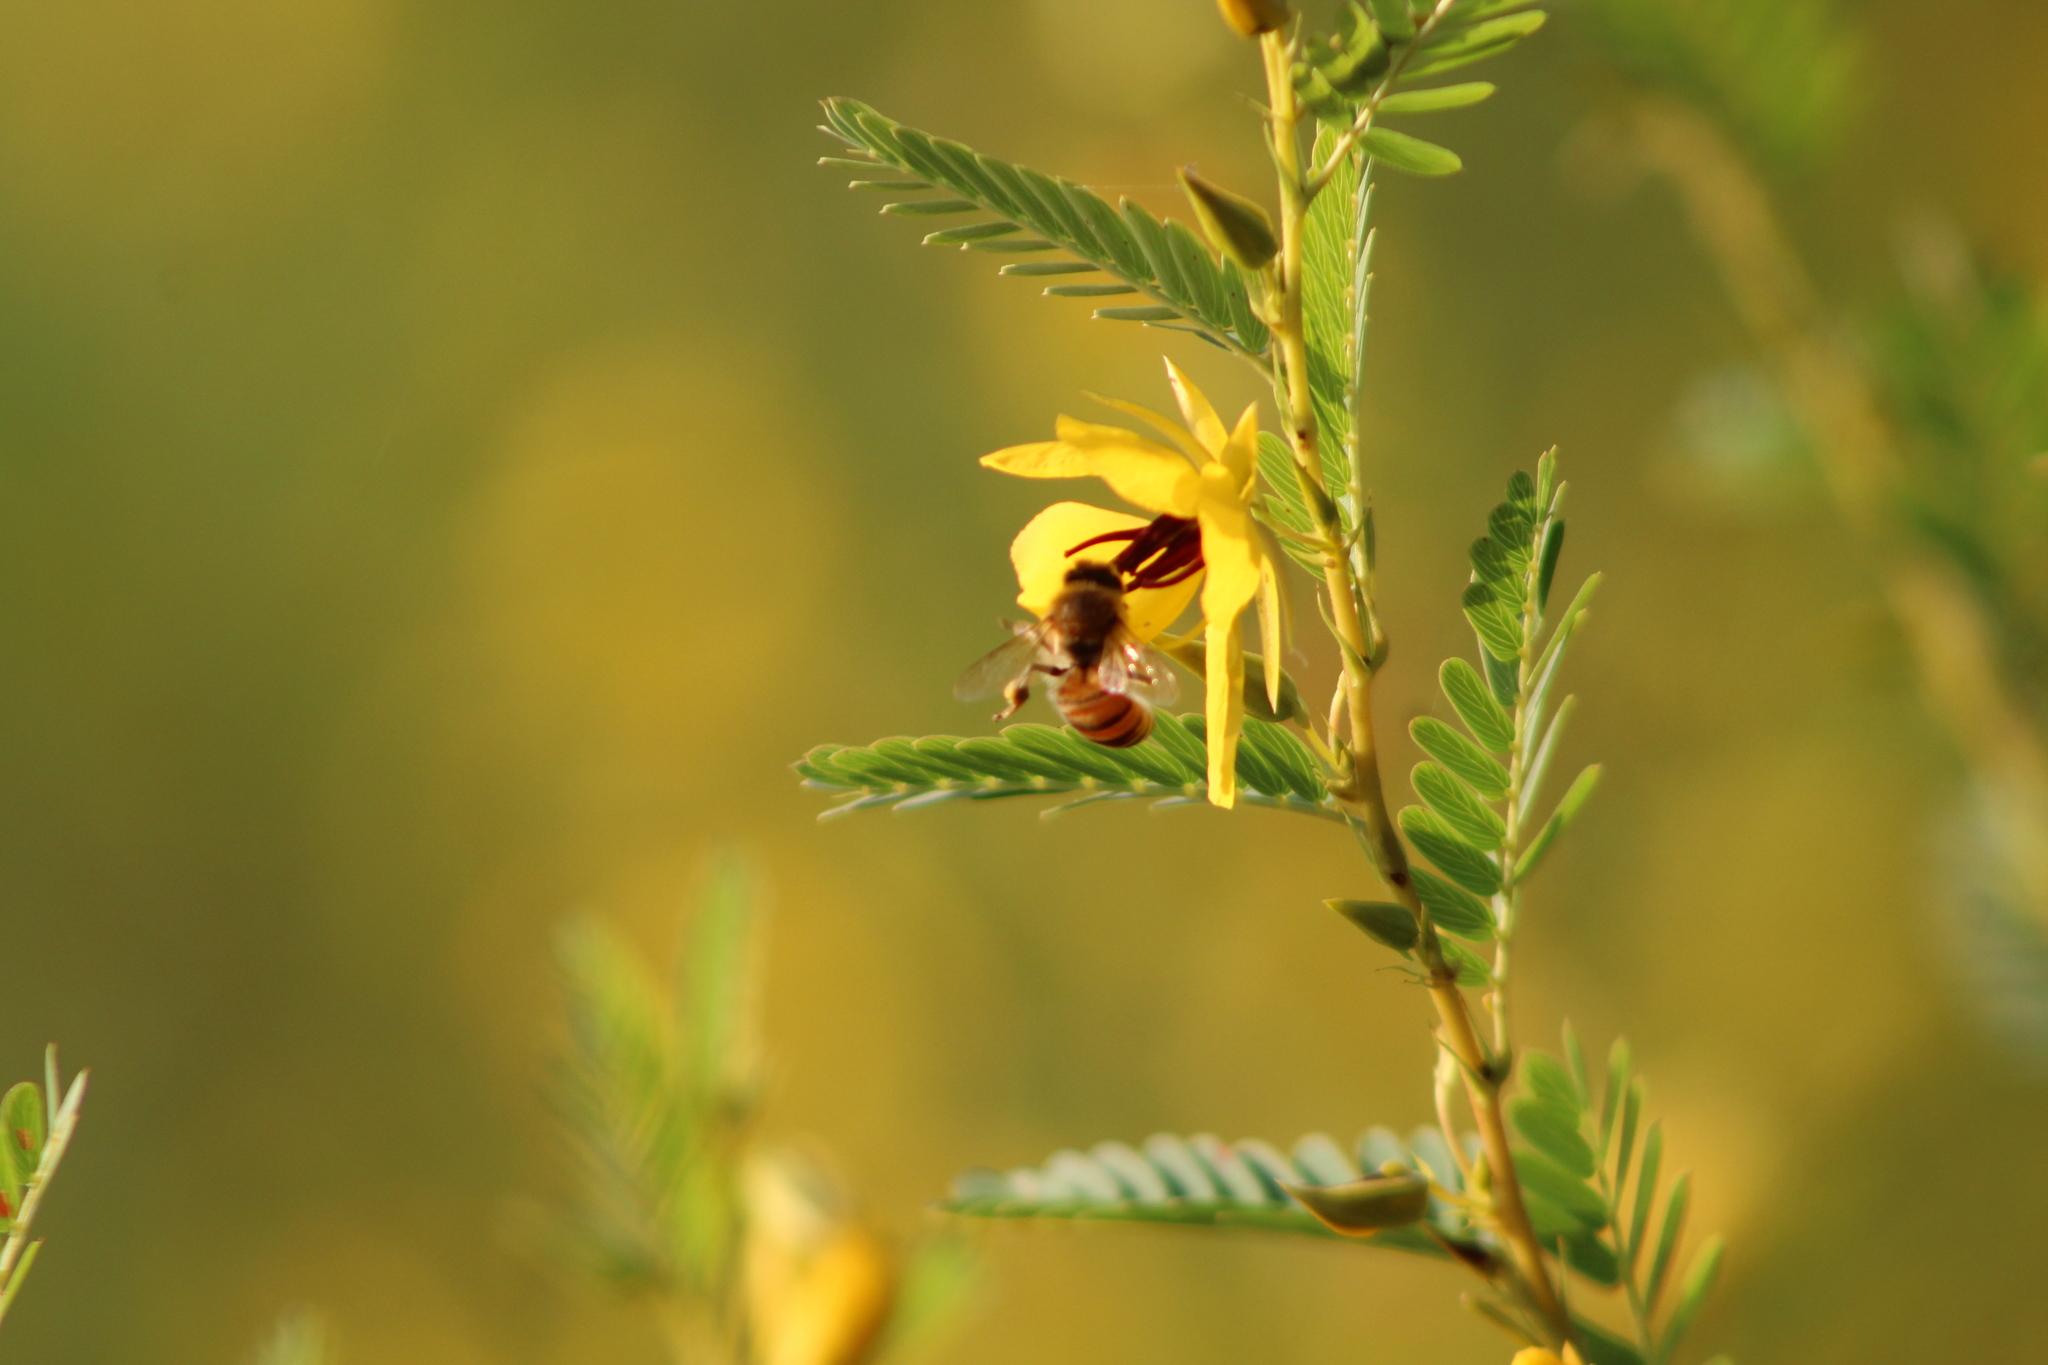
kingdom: Animalia
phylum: Arthropoda
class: Insecta
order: Hymenoptera
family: Apidae
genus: Apis
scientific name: Apis mellifera
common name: Honey bee
